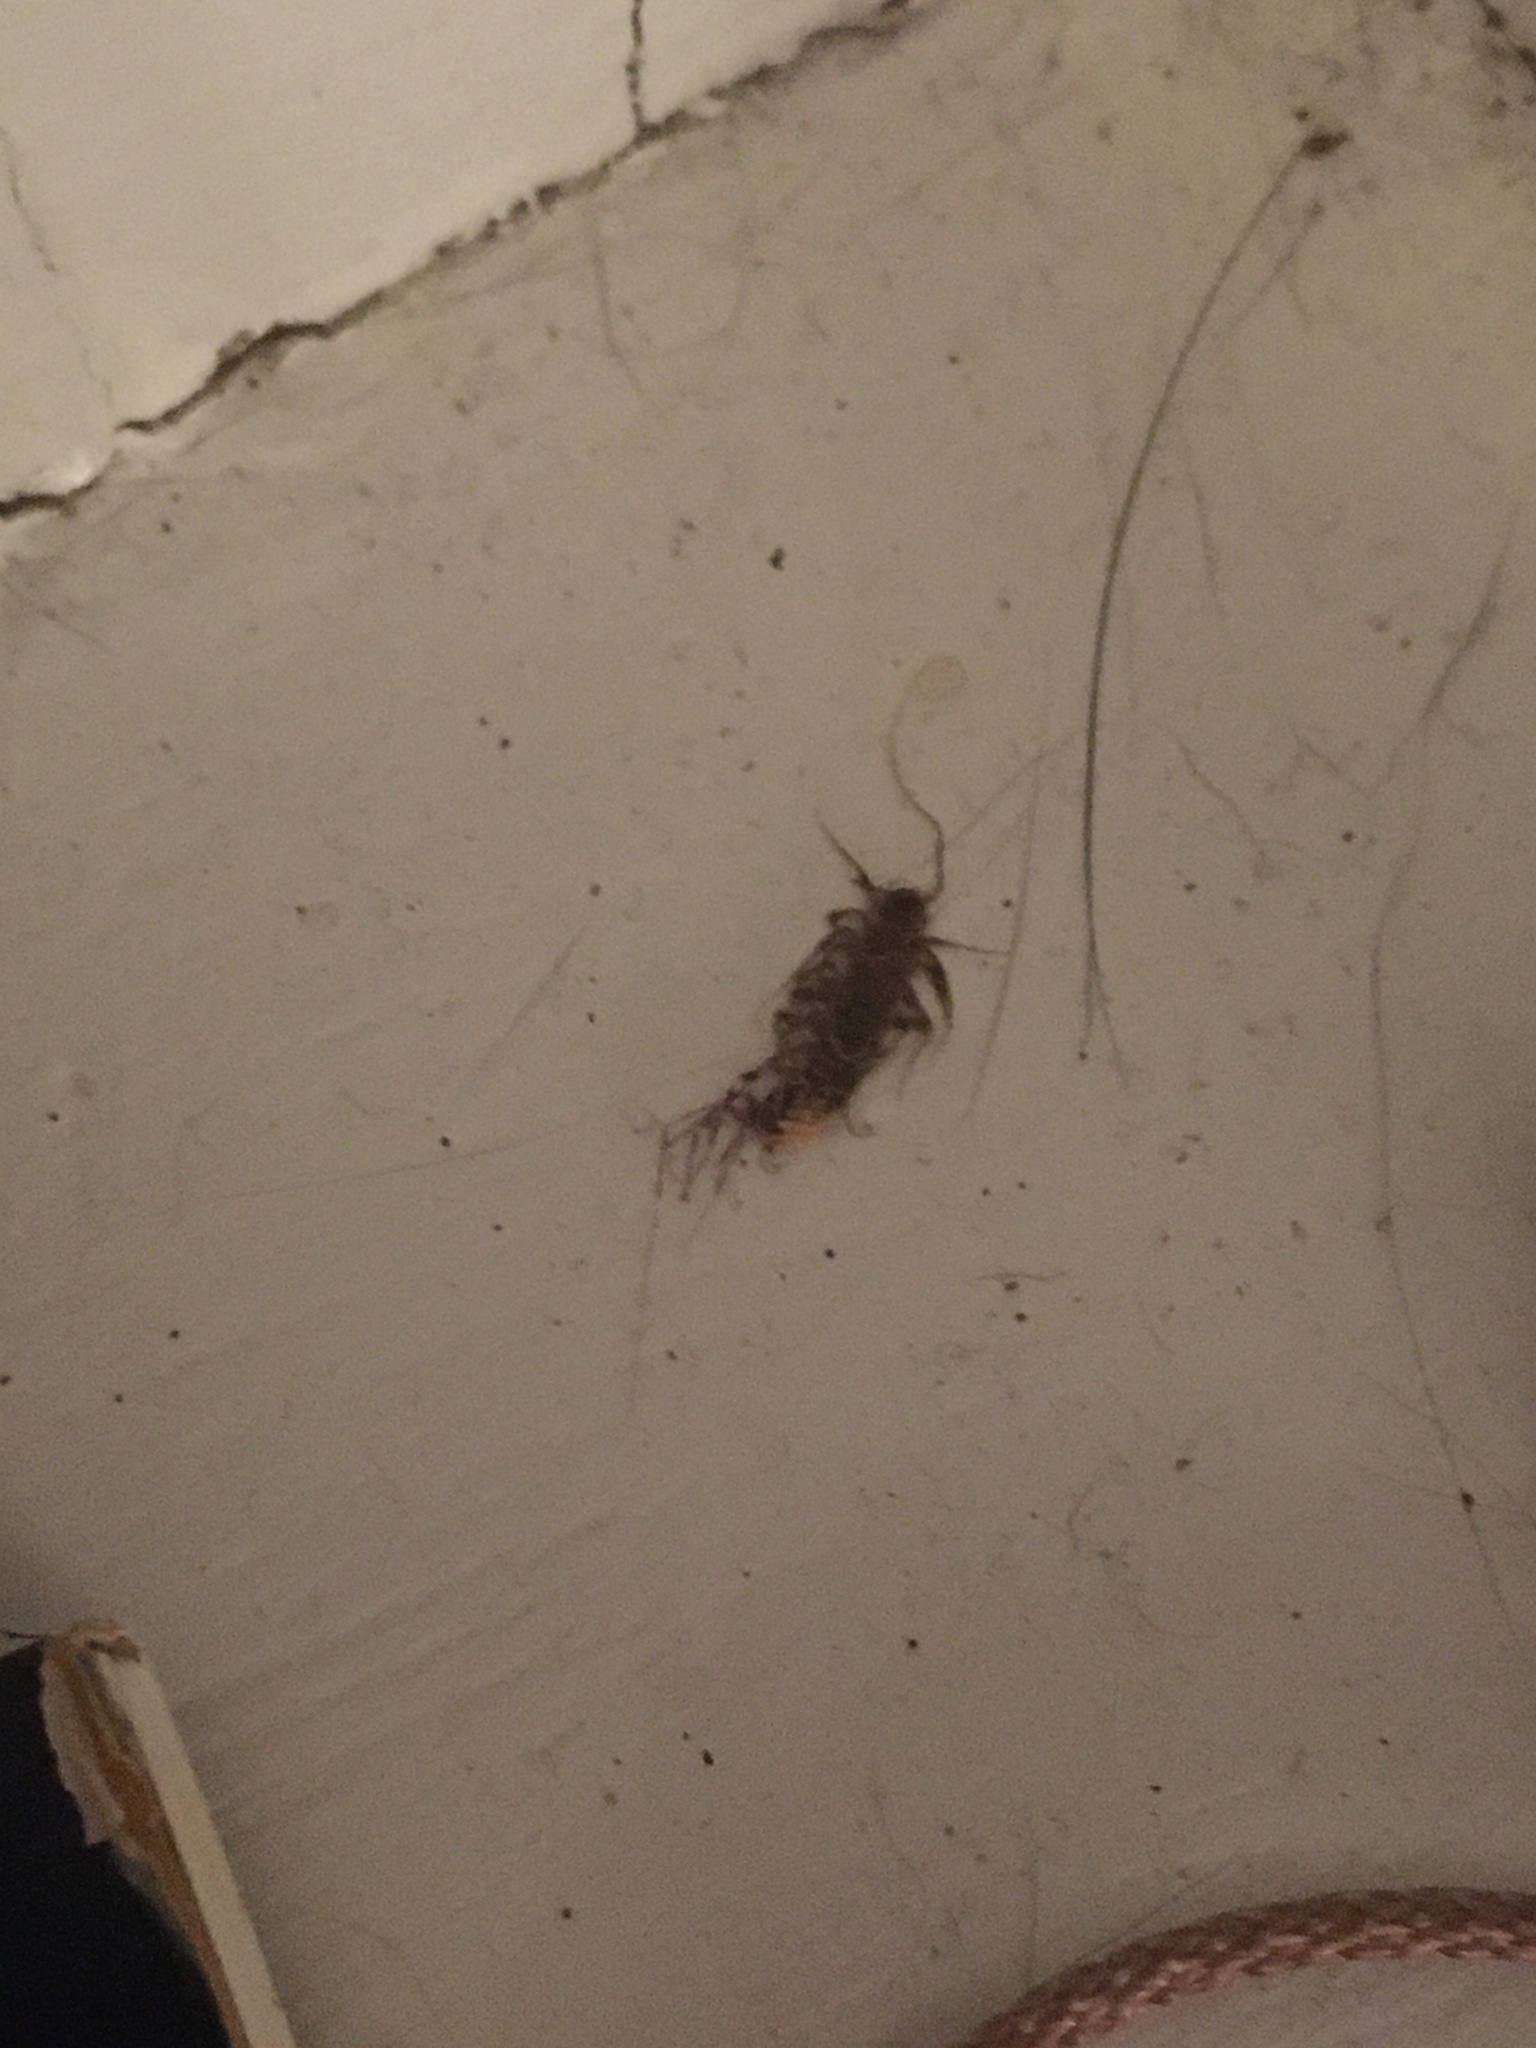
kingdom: Animalia
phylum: Arthropoda
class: Chilopoda
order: Scutigeromorpha
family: Scutigeridae
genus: Scutigera
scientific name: Scutigera coleoptrata
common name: House centipede
